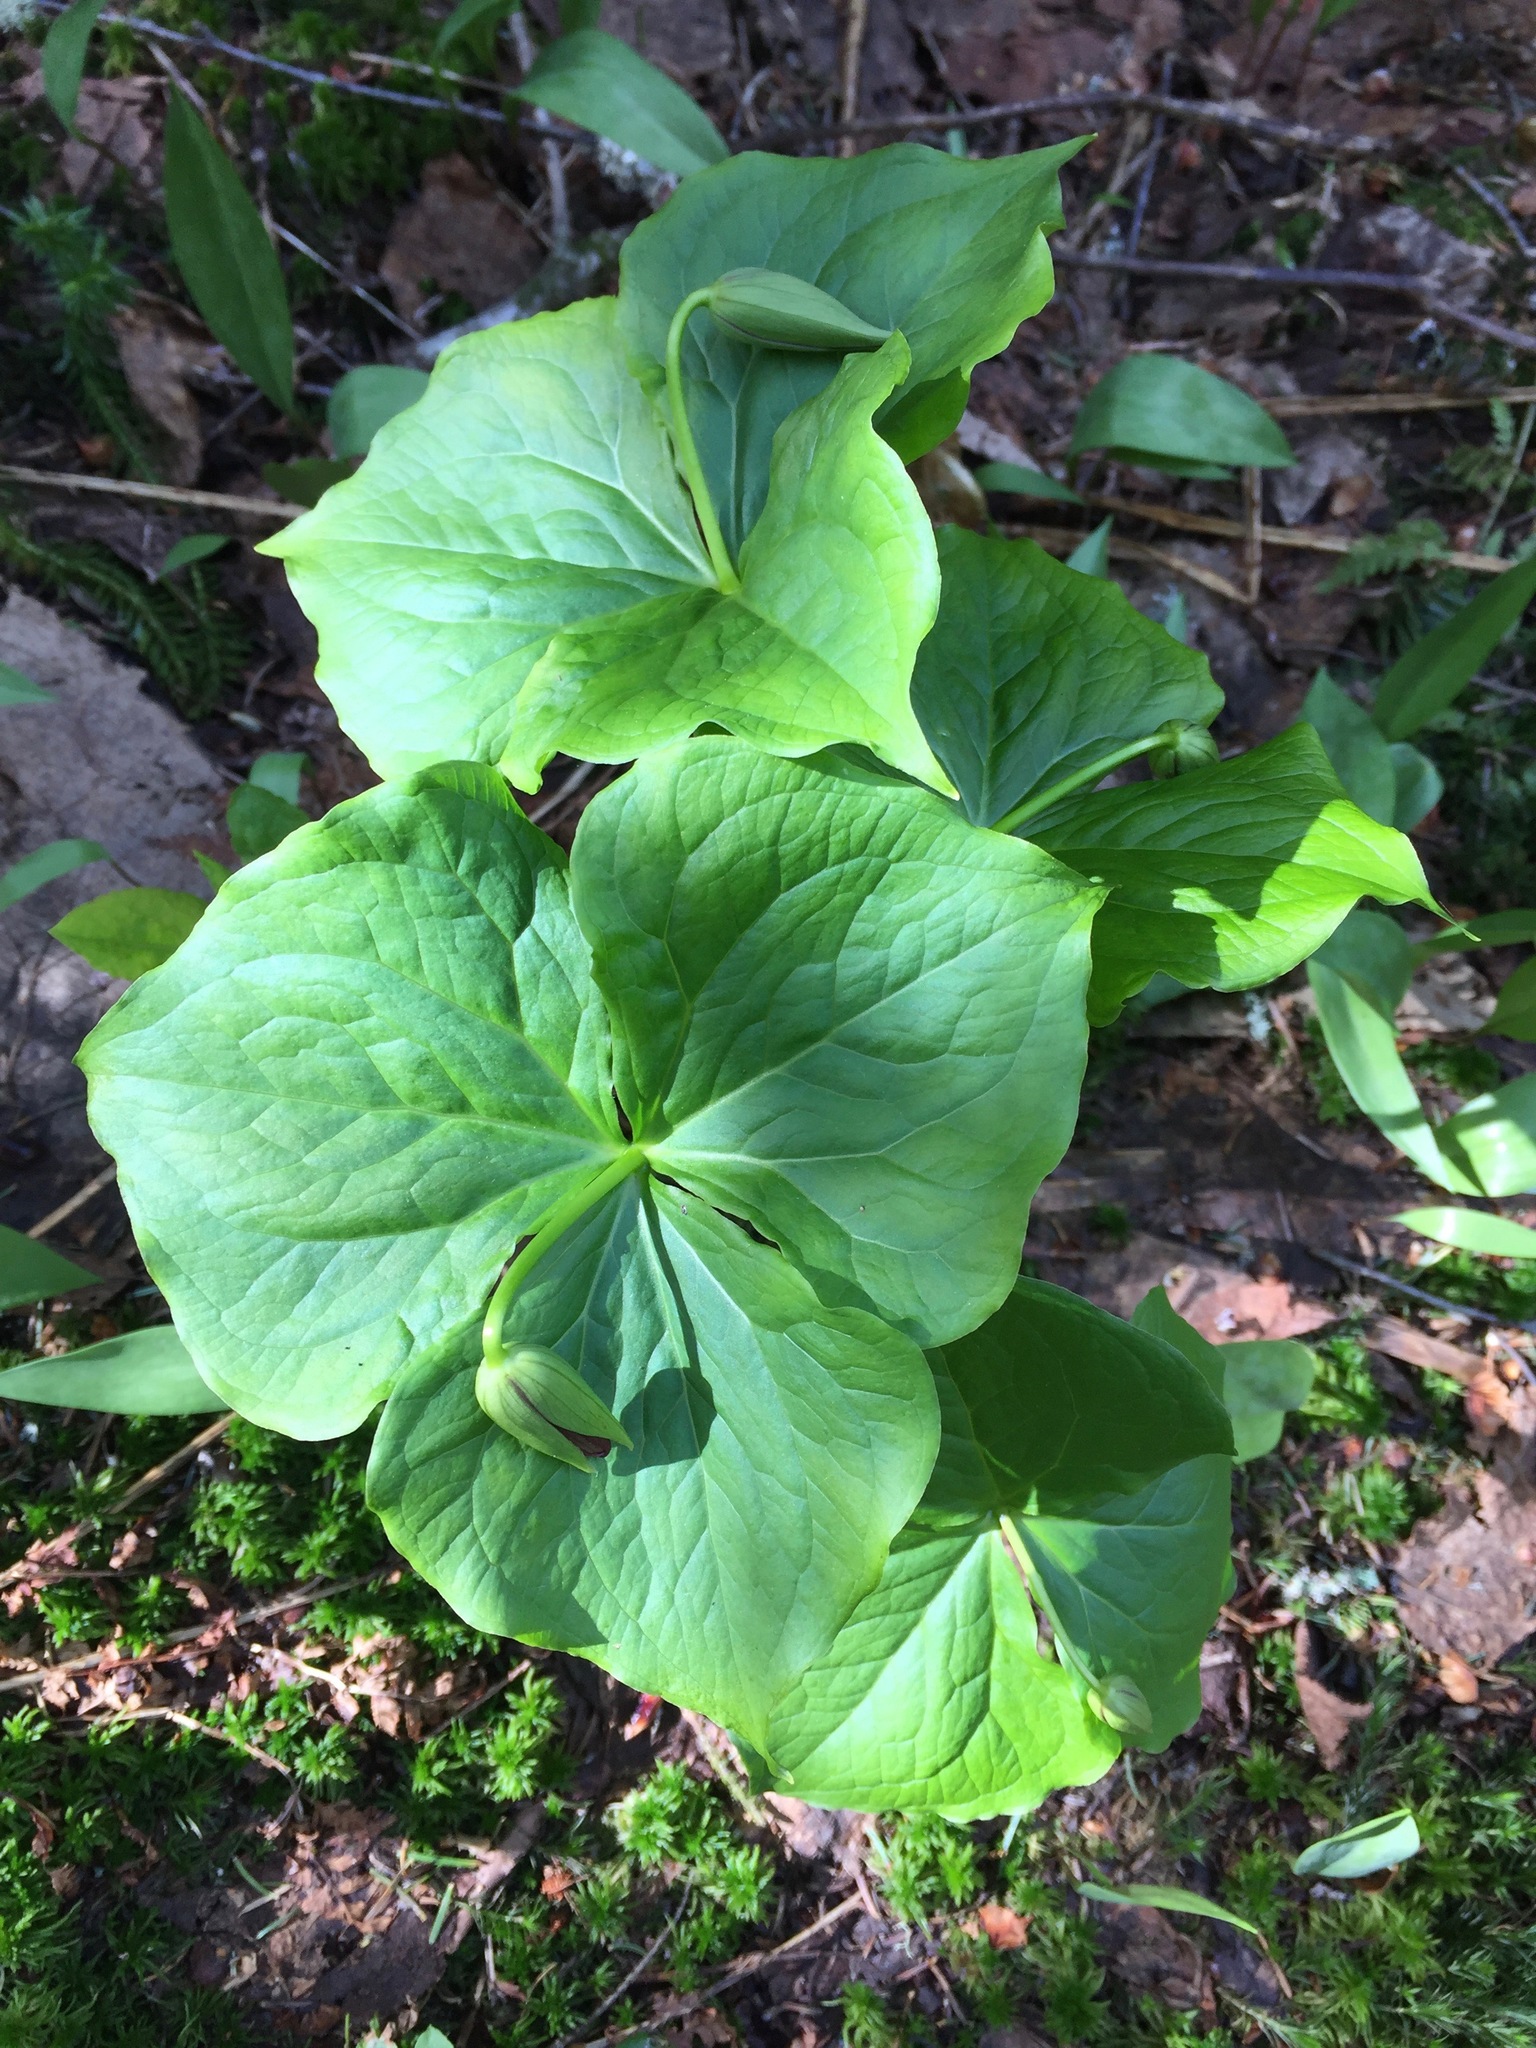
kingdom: Plantae
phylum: Tracheophyta
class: Liliopsida
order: Liliales
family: Melanthiaceae
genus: Trillium
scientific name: Trillium erectum
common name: Purple trillium
